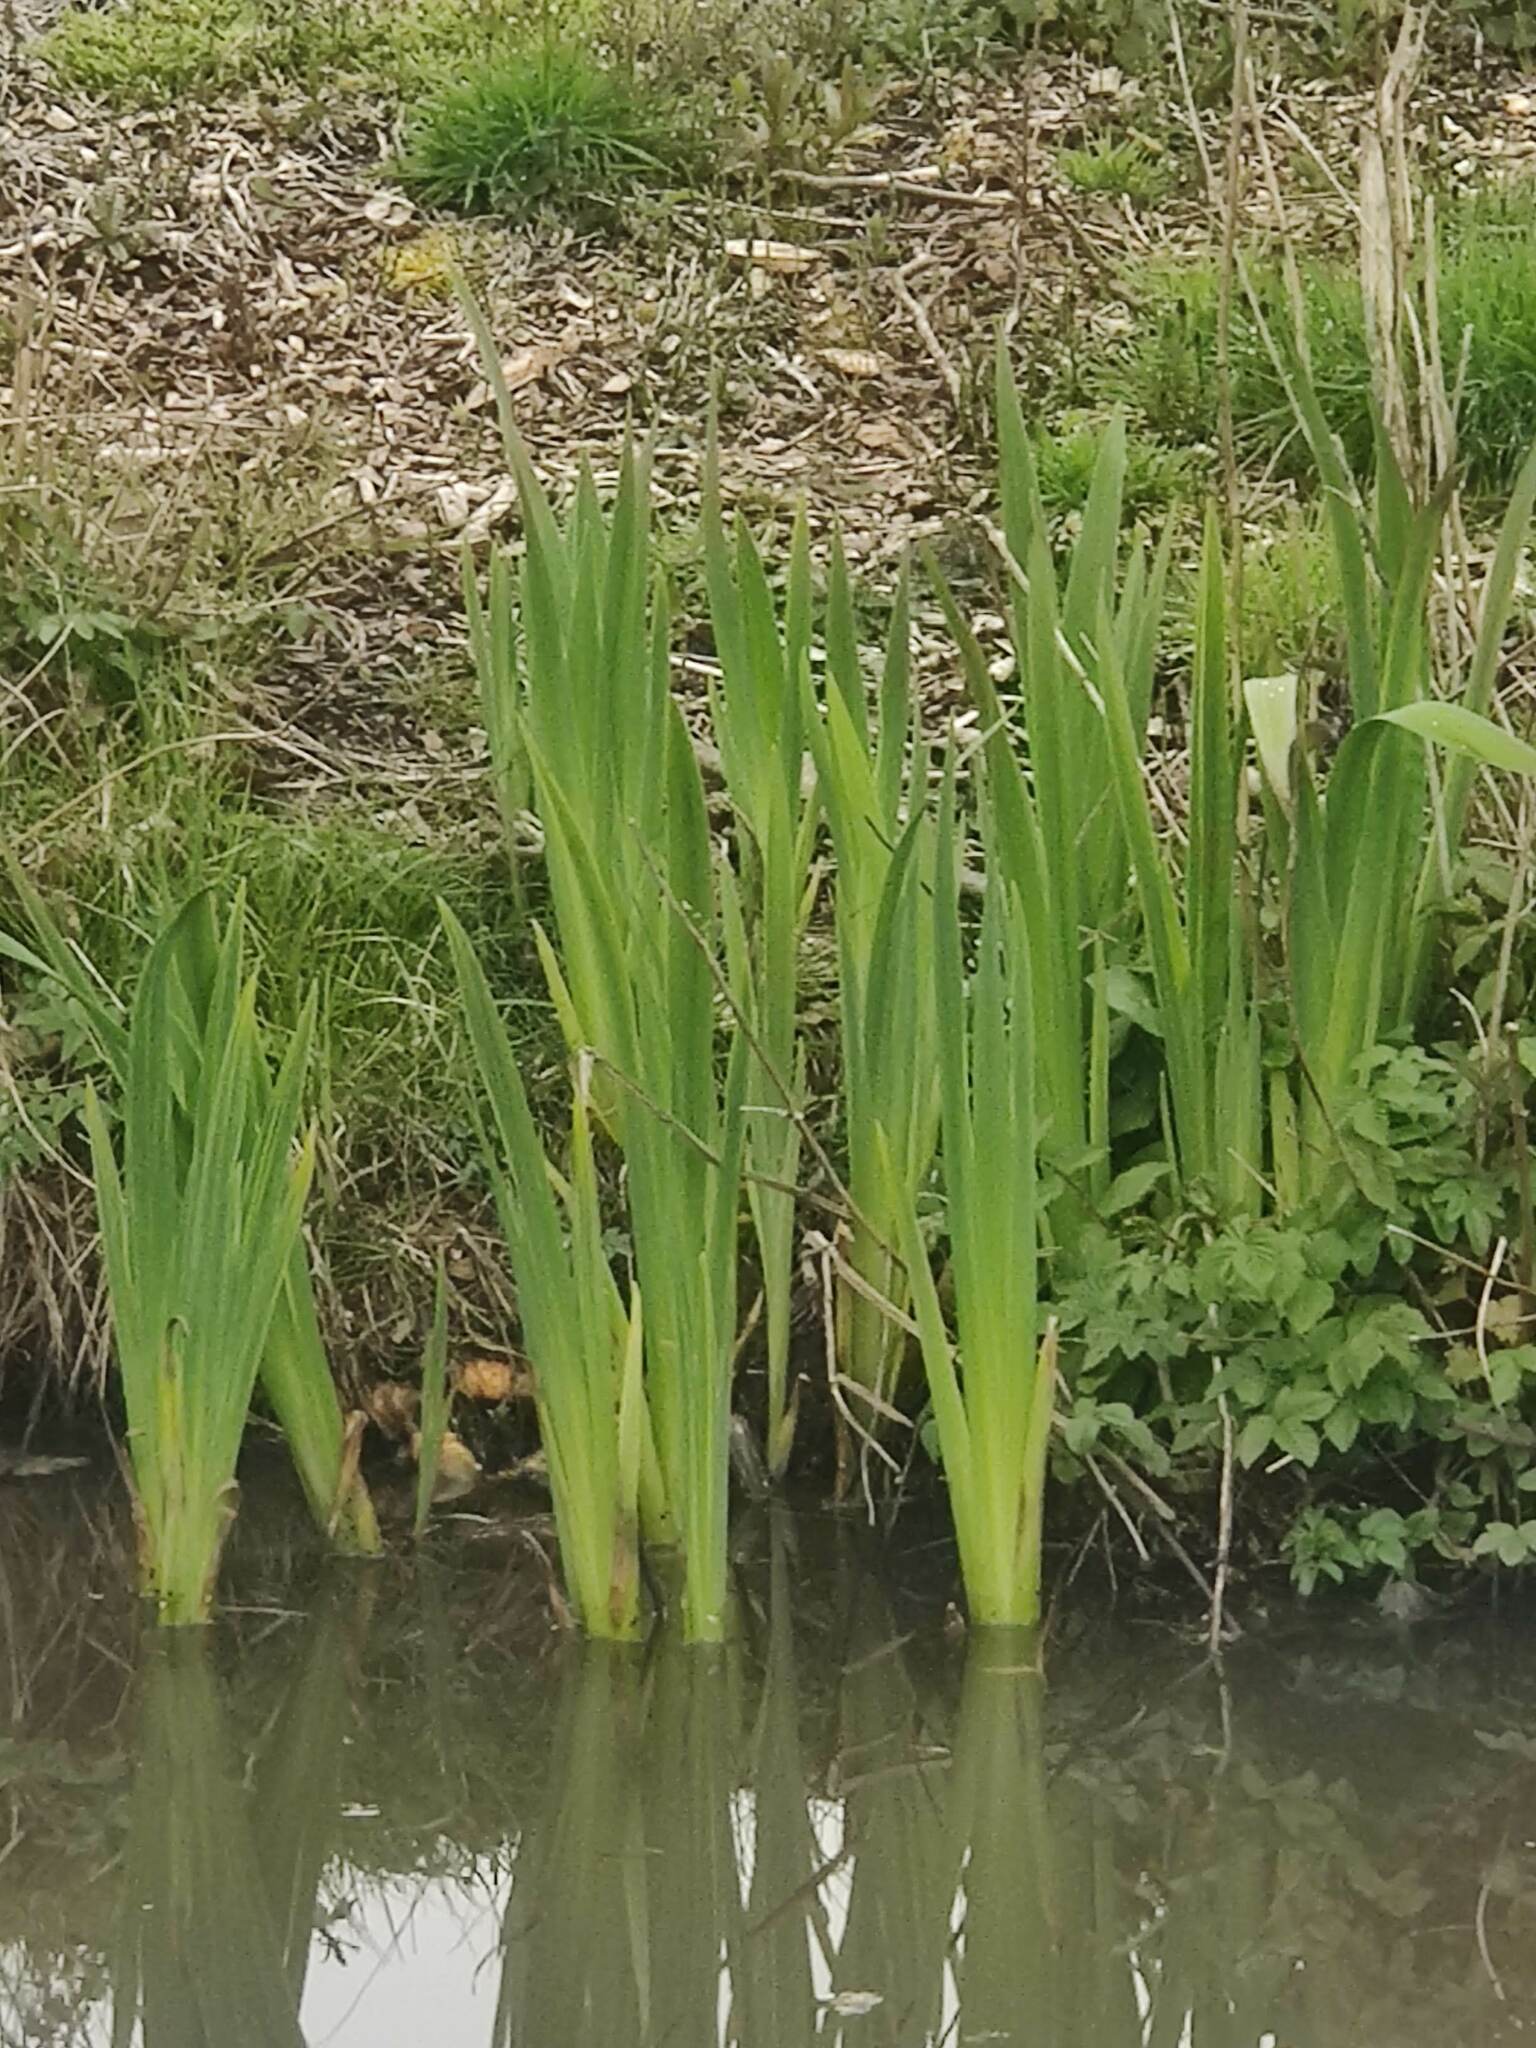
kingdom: Plantae
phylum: Tracheophyta
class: Liliopsida
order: Asparagales
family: Iridaceae
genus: Iris
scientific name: Iris pseudacorus
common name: Yellow flag
